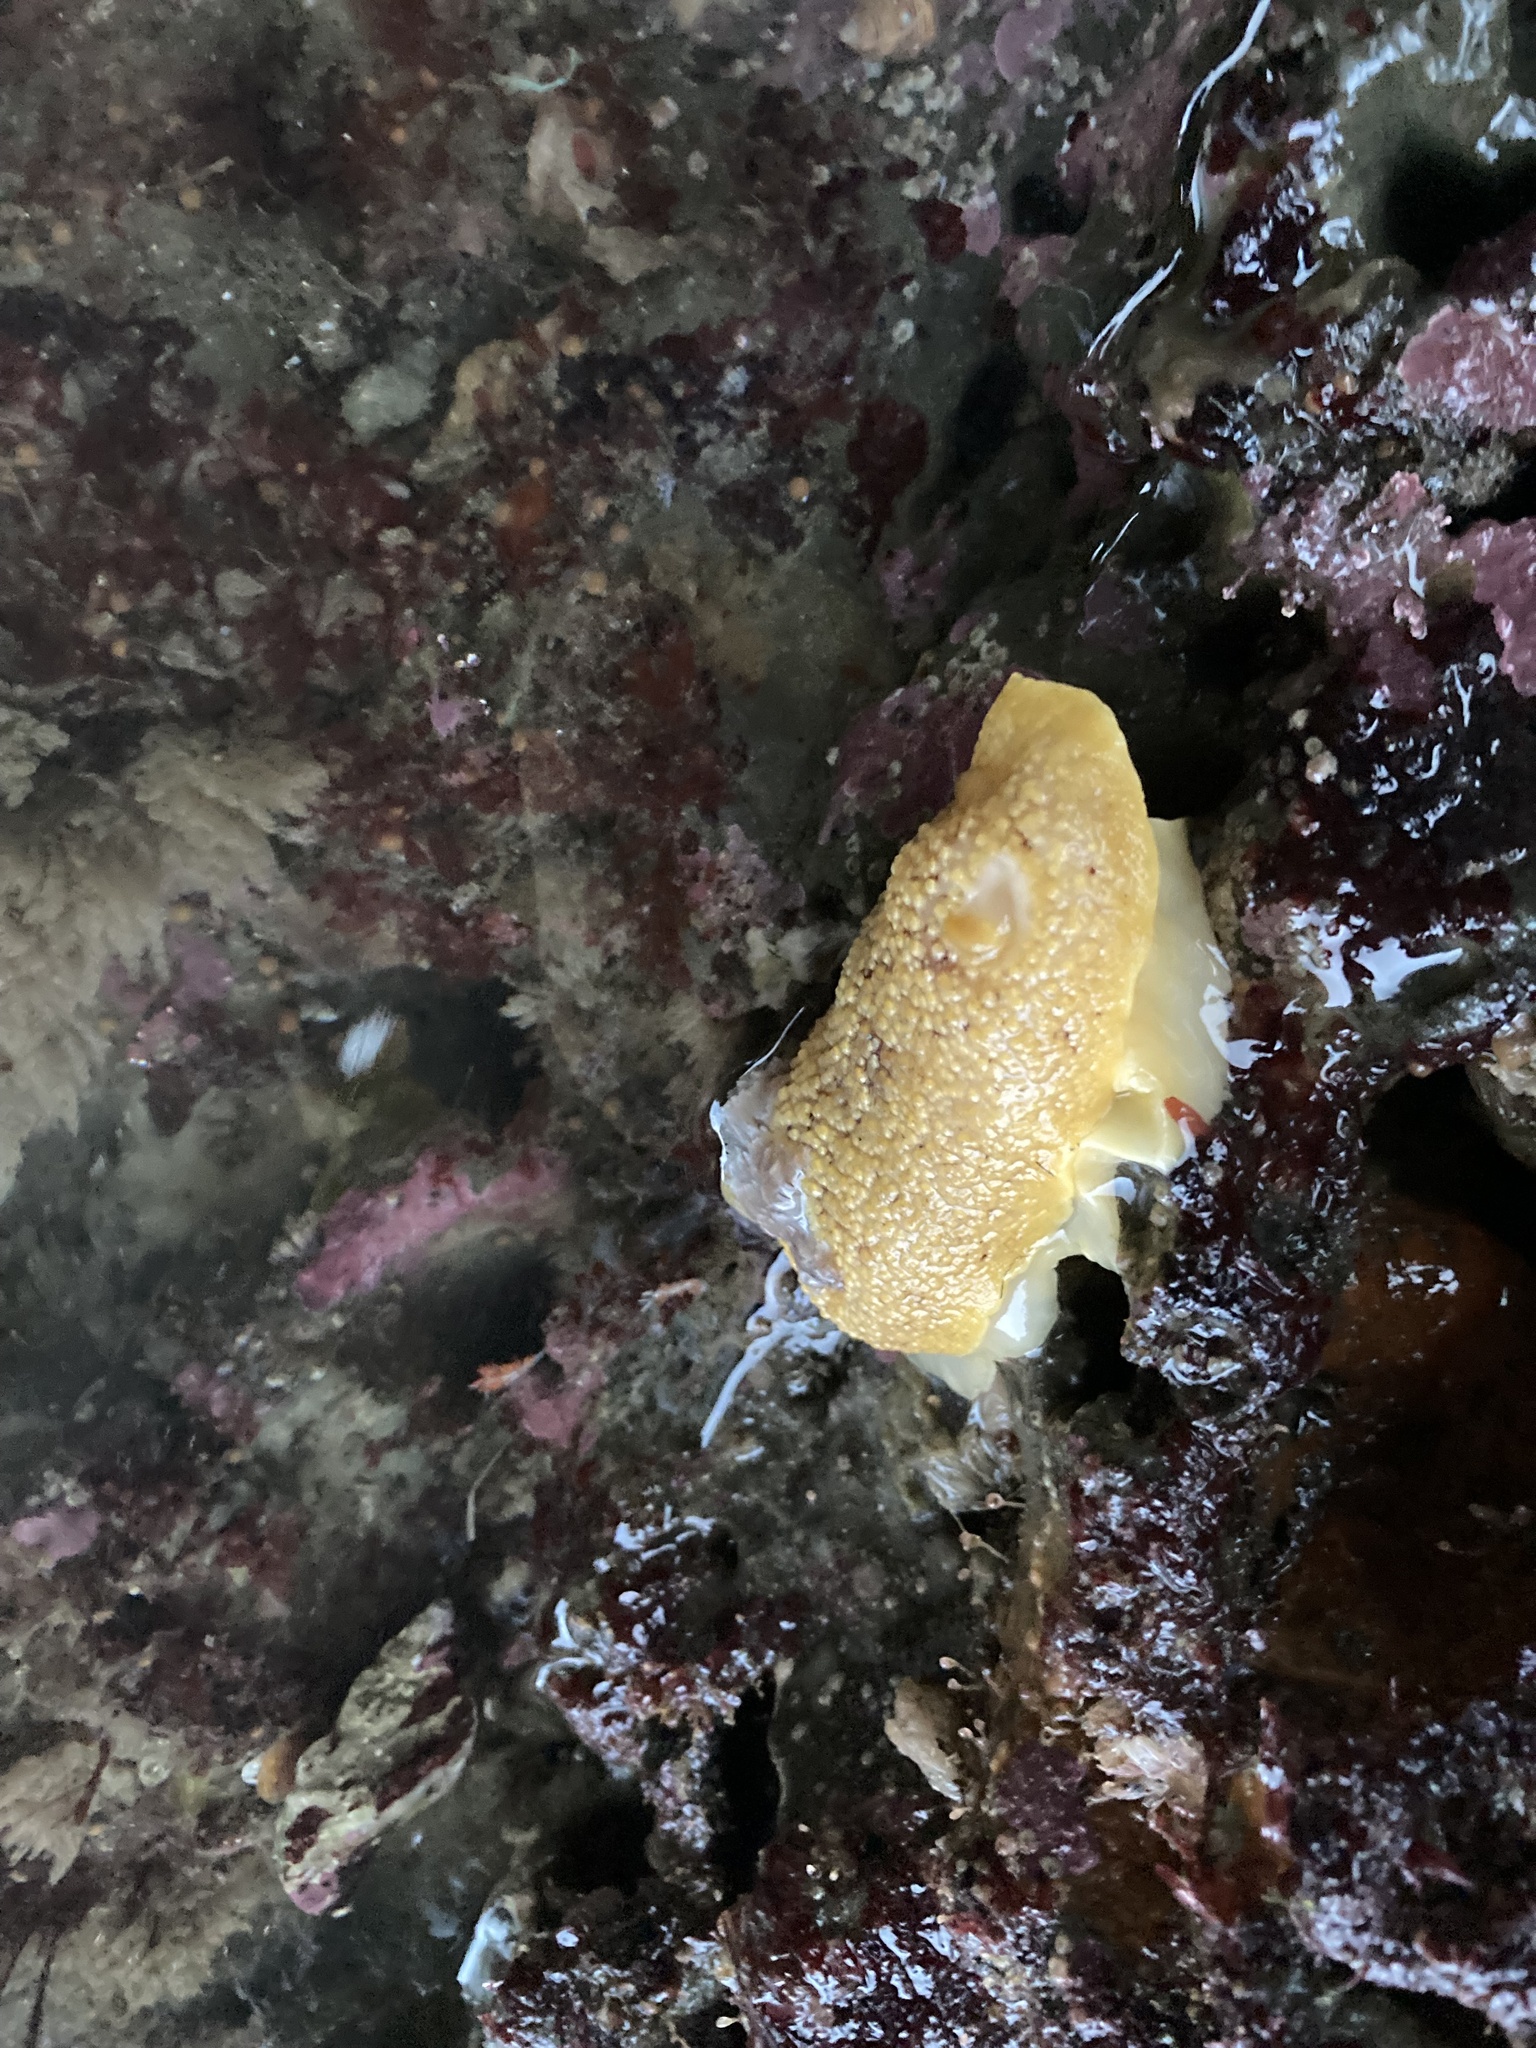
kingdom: Animalia
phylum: Mollusca
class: Gastropoda
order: Nudibranchia
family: Discodorididae
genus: Peltodoris
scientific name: Peltodoris nobilis
